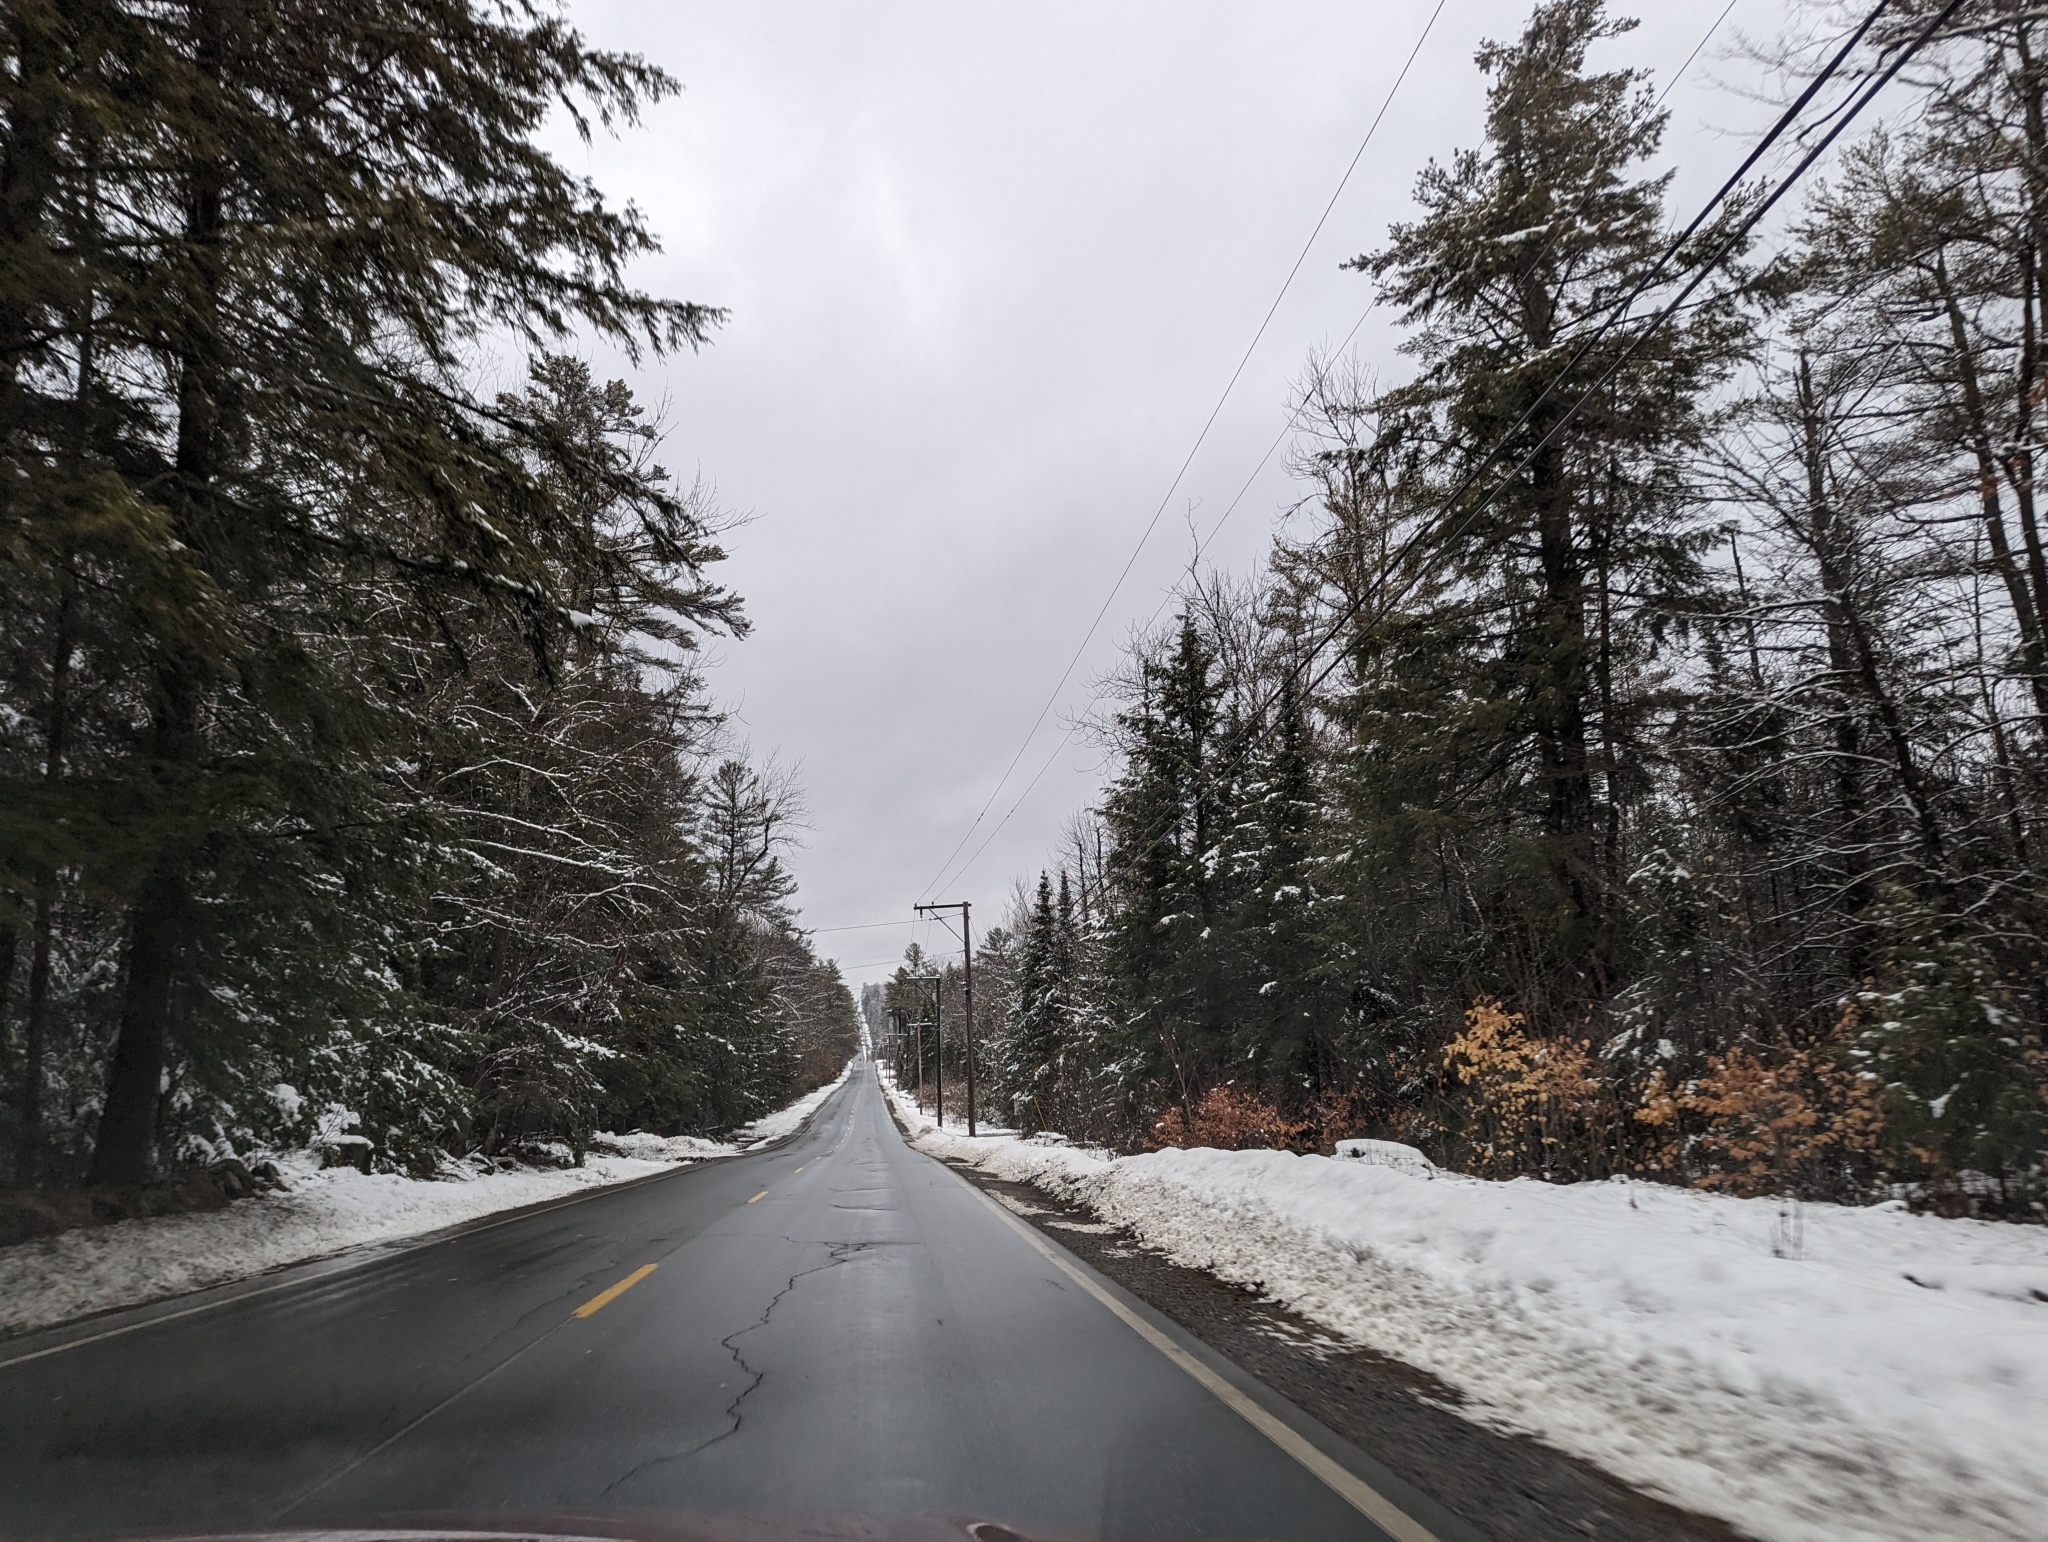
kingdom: Plantae
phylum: Tracheophyta
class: Pinopsida
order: Pinales
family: Pinaceae
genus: Tsuga
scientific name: Tsuga canadensis
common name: Eastern hemlock
